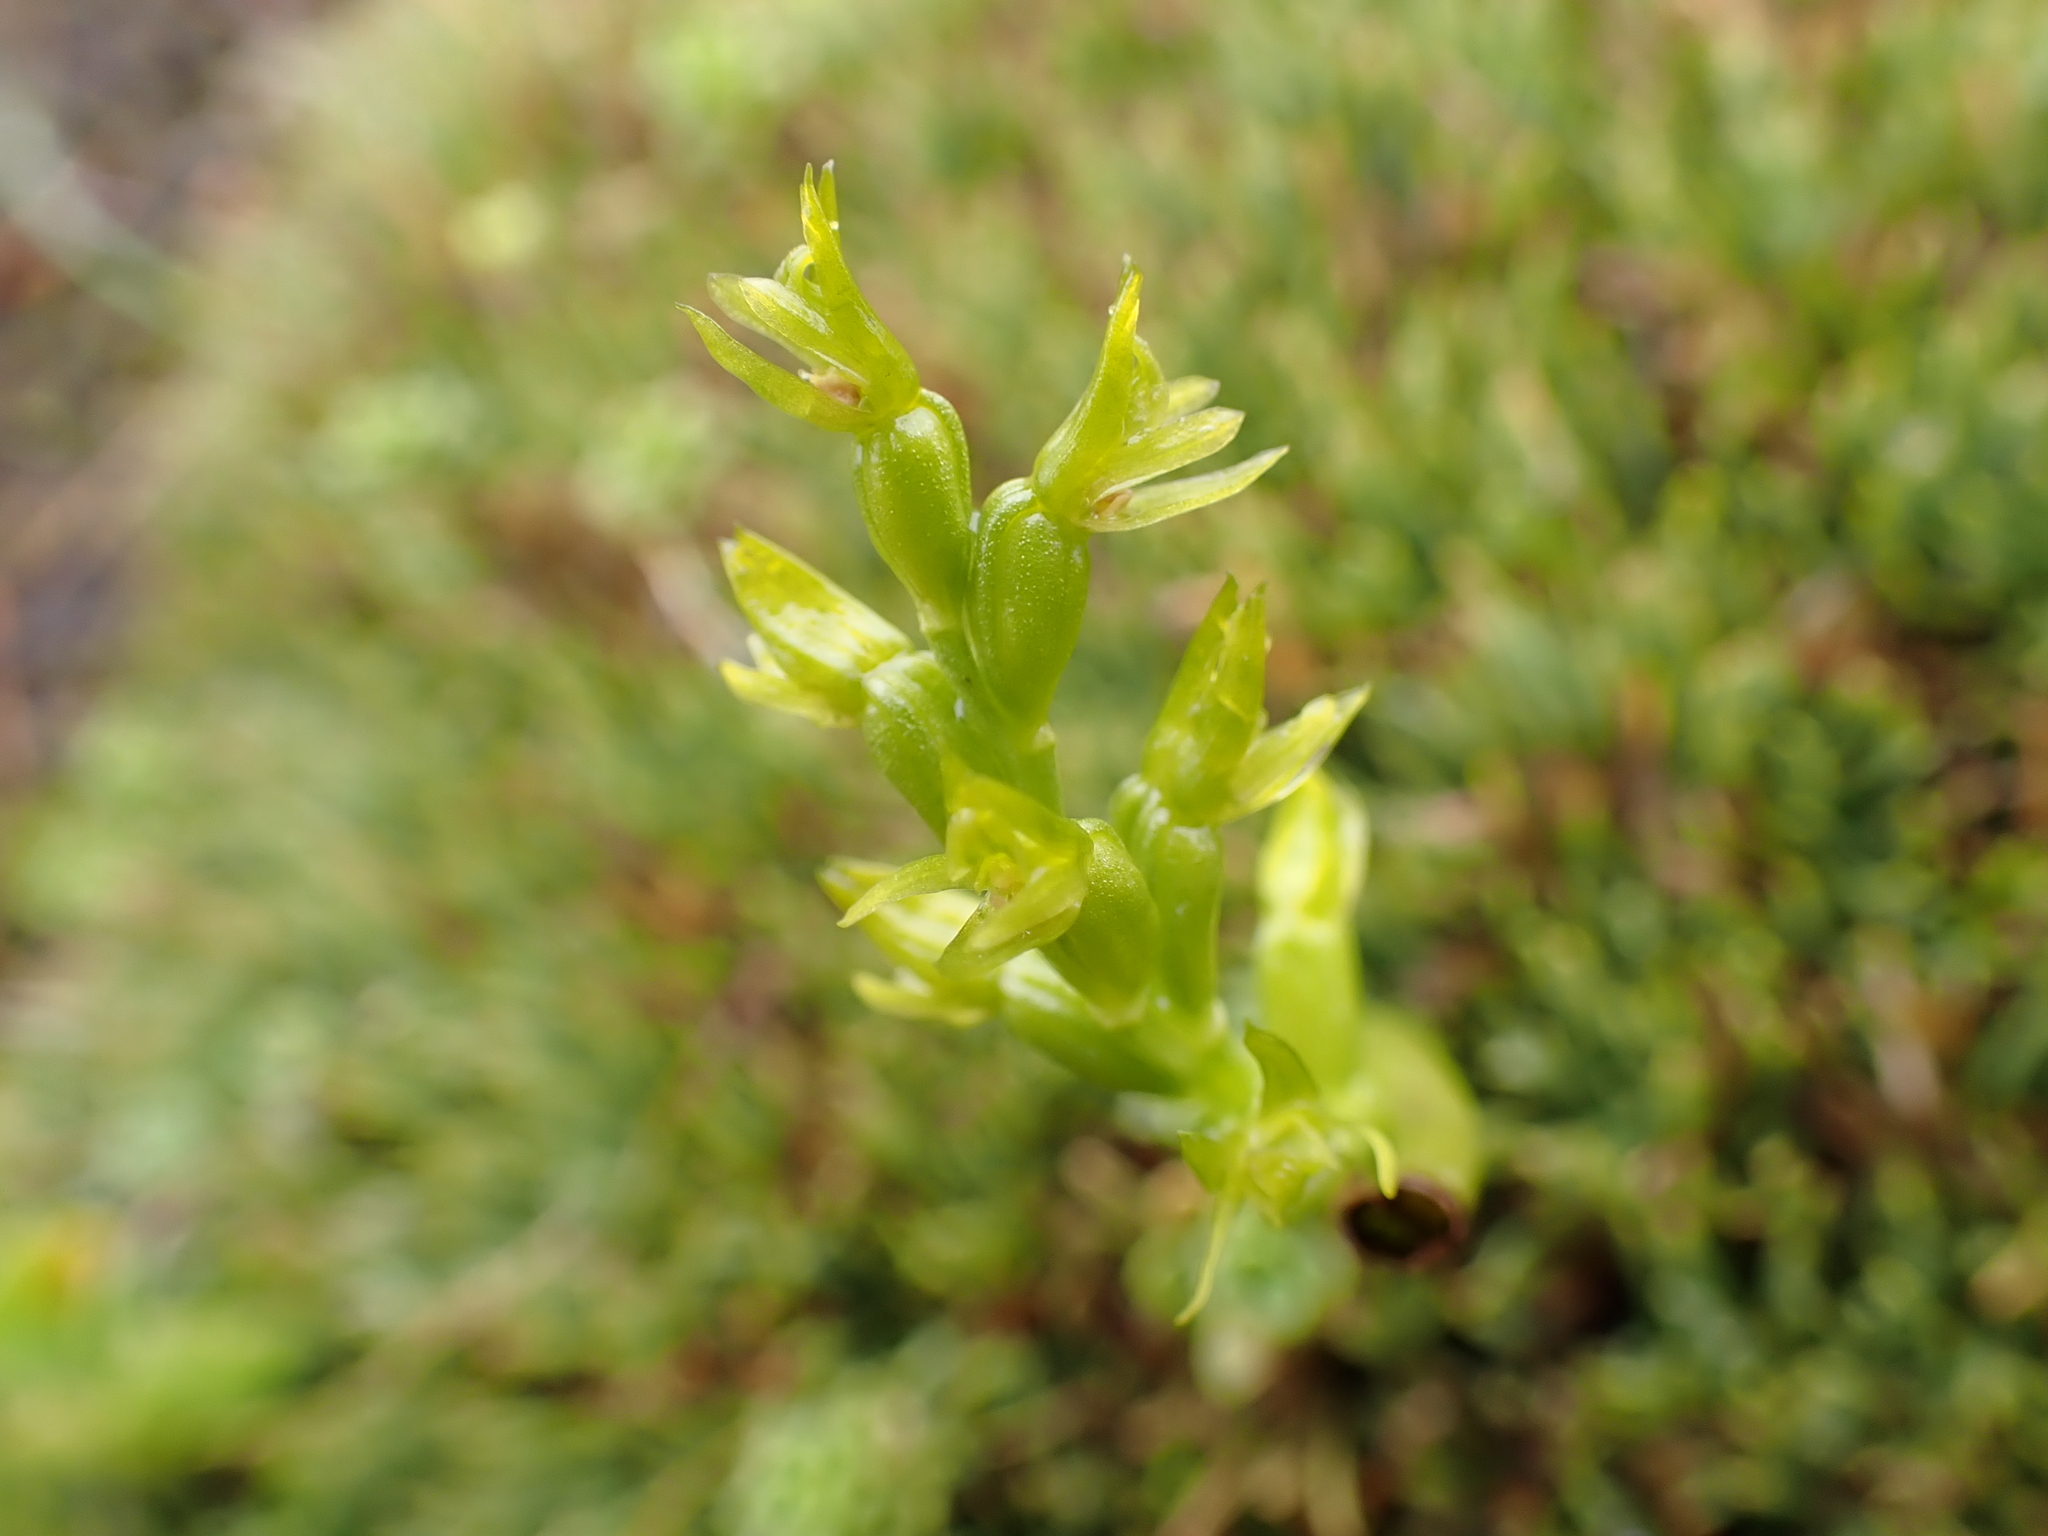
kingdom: Plantae
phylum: Tracheophyta
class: Liliopsida
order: Asparagales
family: Orchidaceae
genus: Prasophyllum
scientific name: Prasophyllum colensoi
